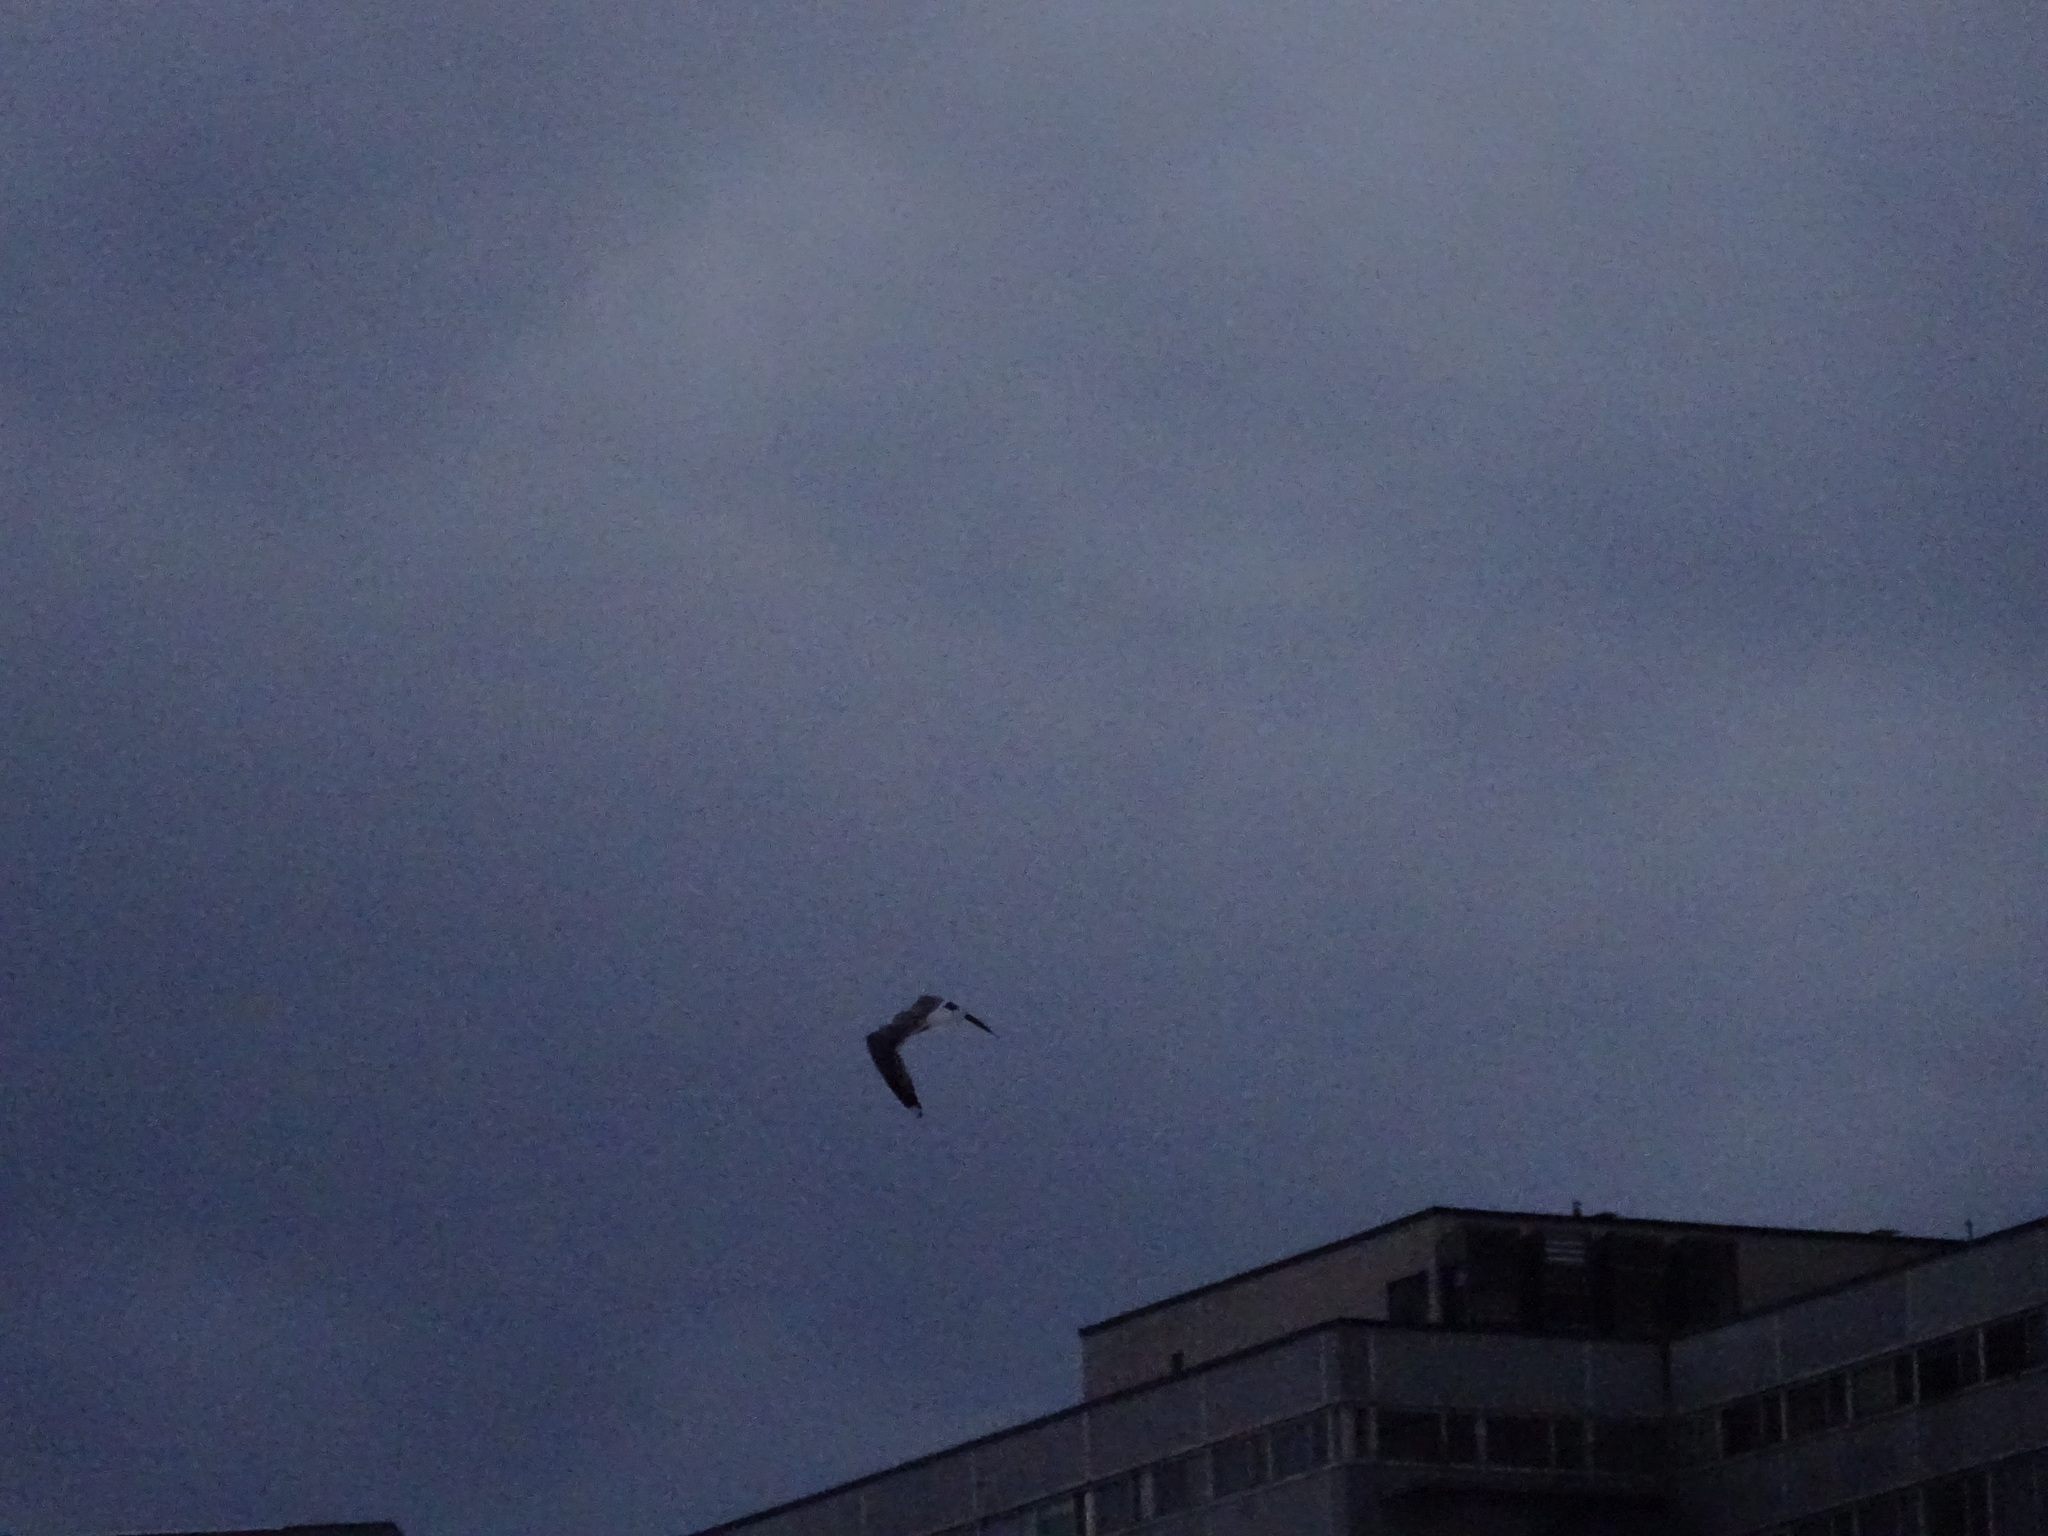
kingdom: Animalia
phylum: Chordata
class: Aves
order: Charadriiformes
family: Laridae
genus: Larus
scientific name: Larus canus
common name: Mew gull
